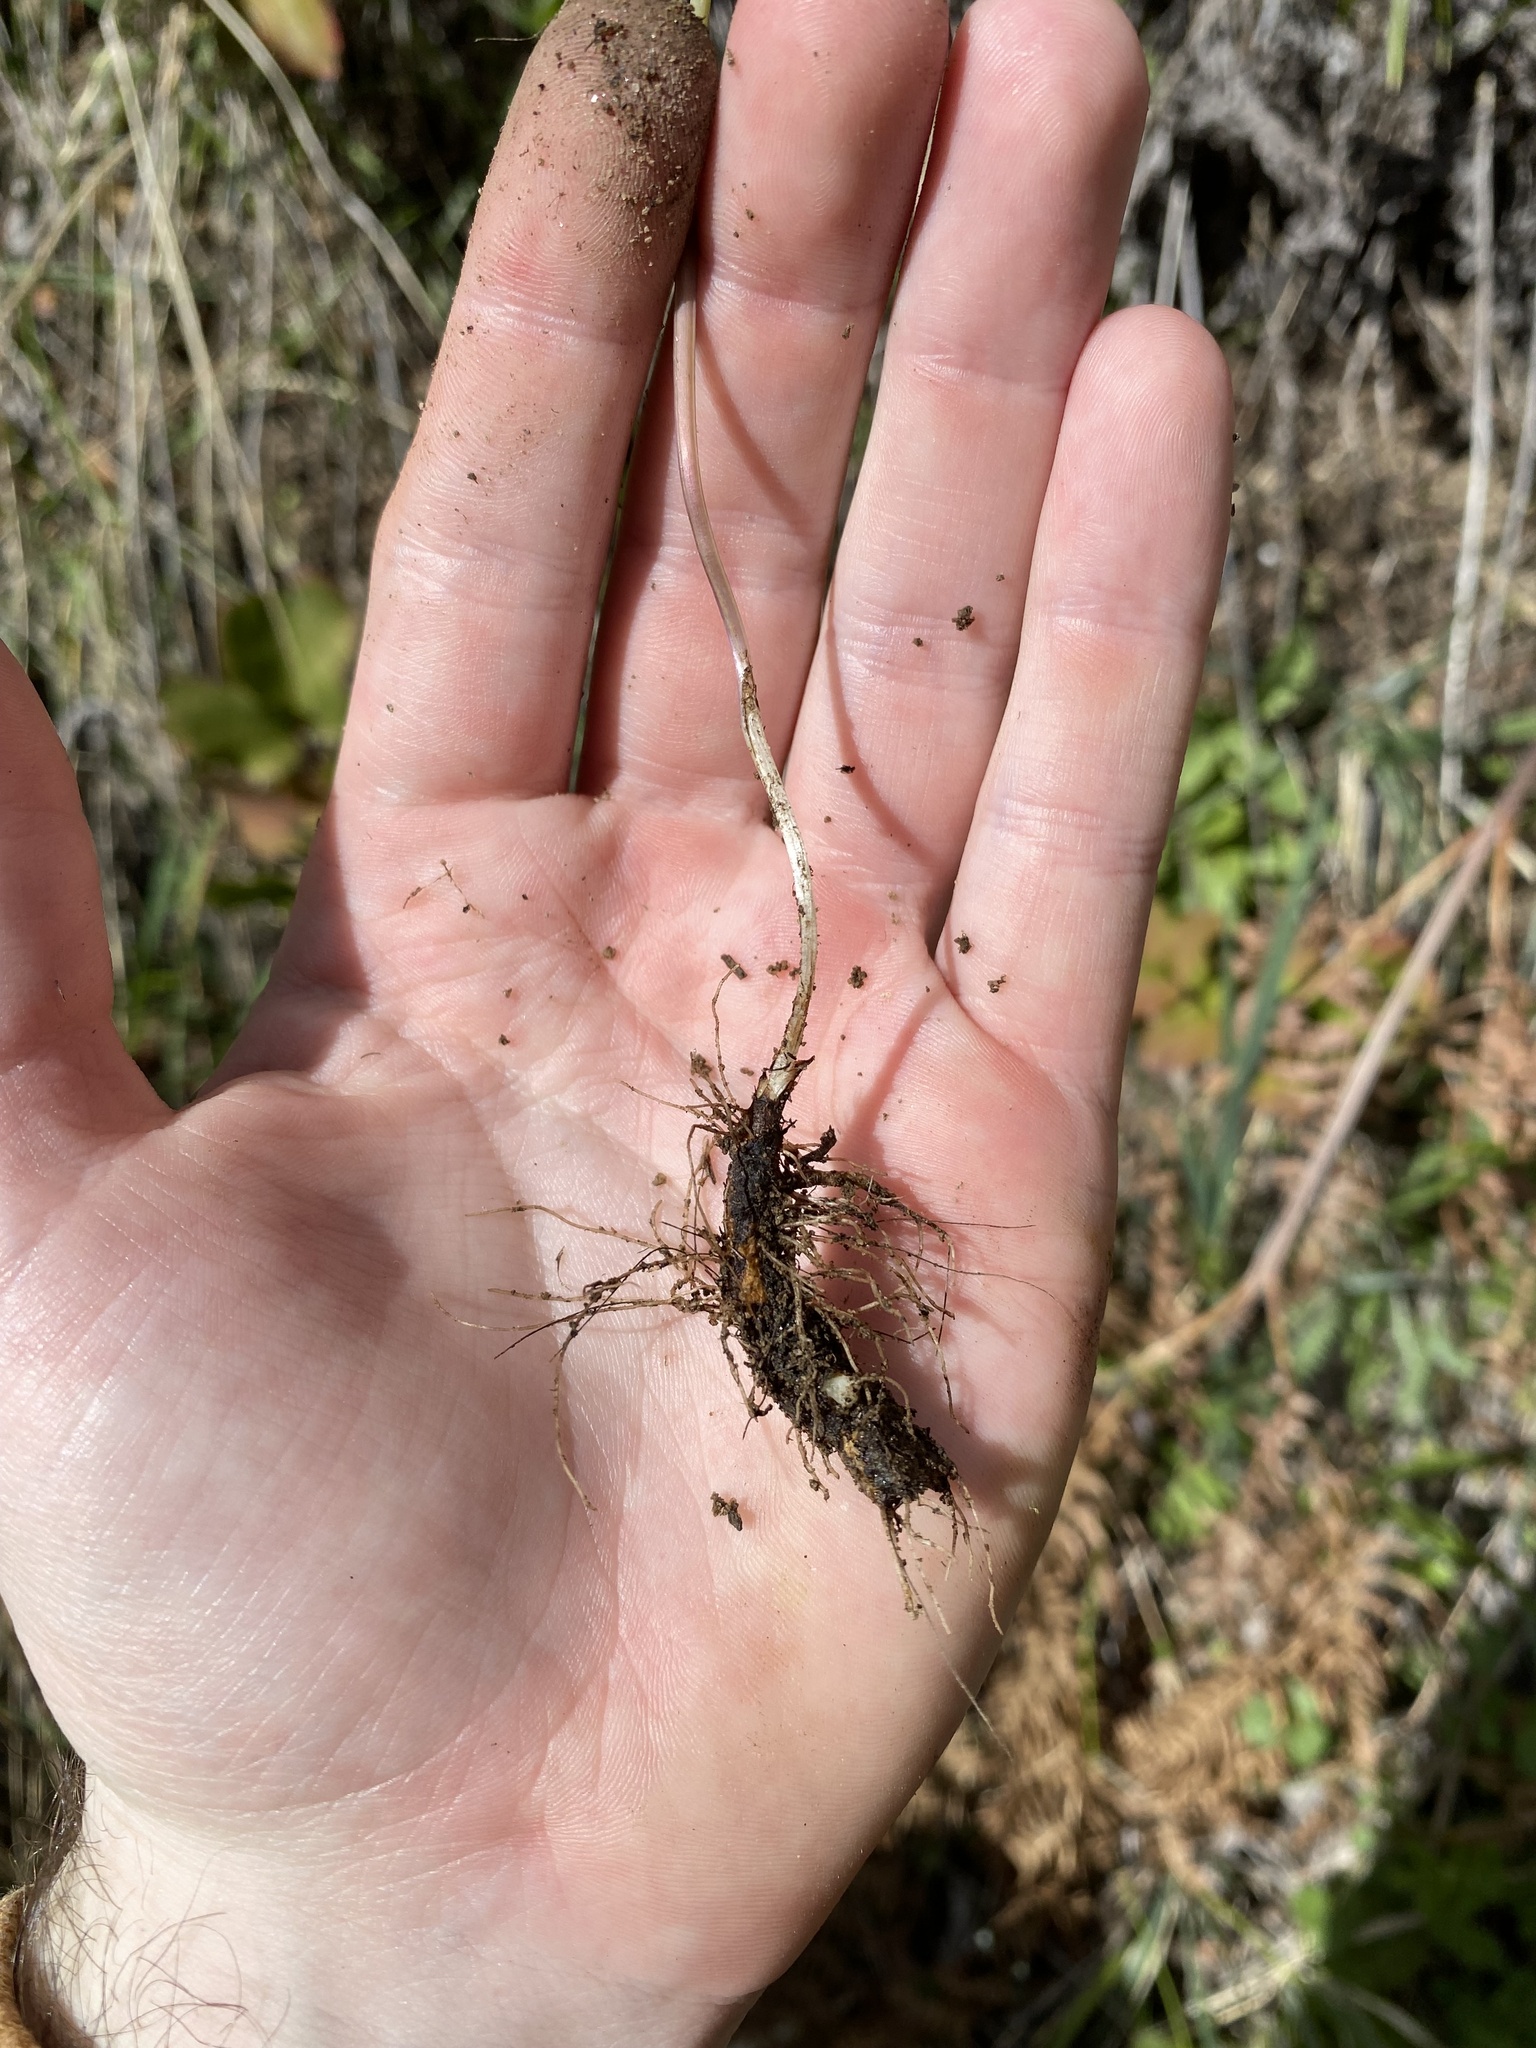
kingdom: Plantae
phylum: Tracheophyta
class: Magnoliopsida
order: Boraginales
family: Boraginaceae
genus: Mertensia
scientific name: Mertensia longiflora
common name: Large-flowered bluebells
